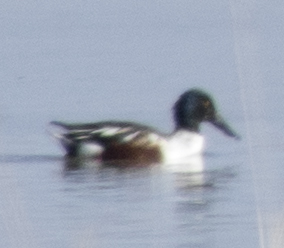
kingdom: Animalia
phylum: Chordata
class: Aves
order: Anseriformes
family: Anatidae
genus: Spatula
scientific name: Spatula clypeata
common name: Northern shoveler
